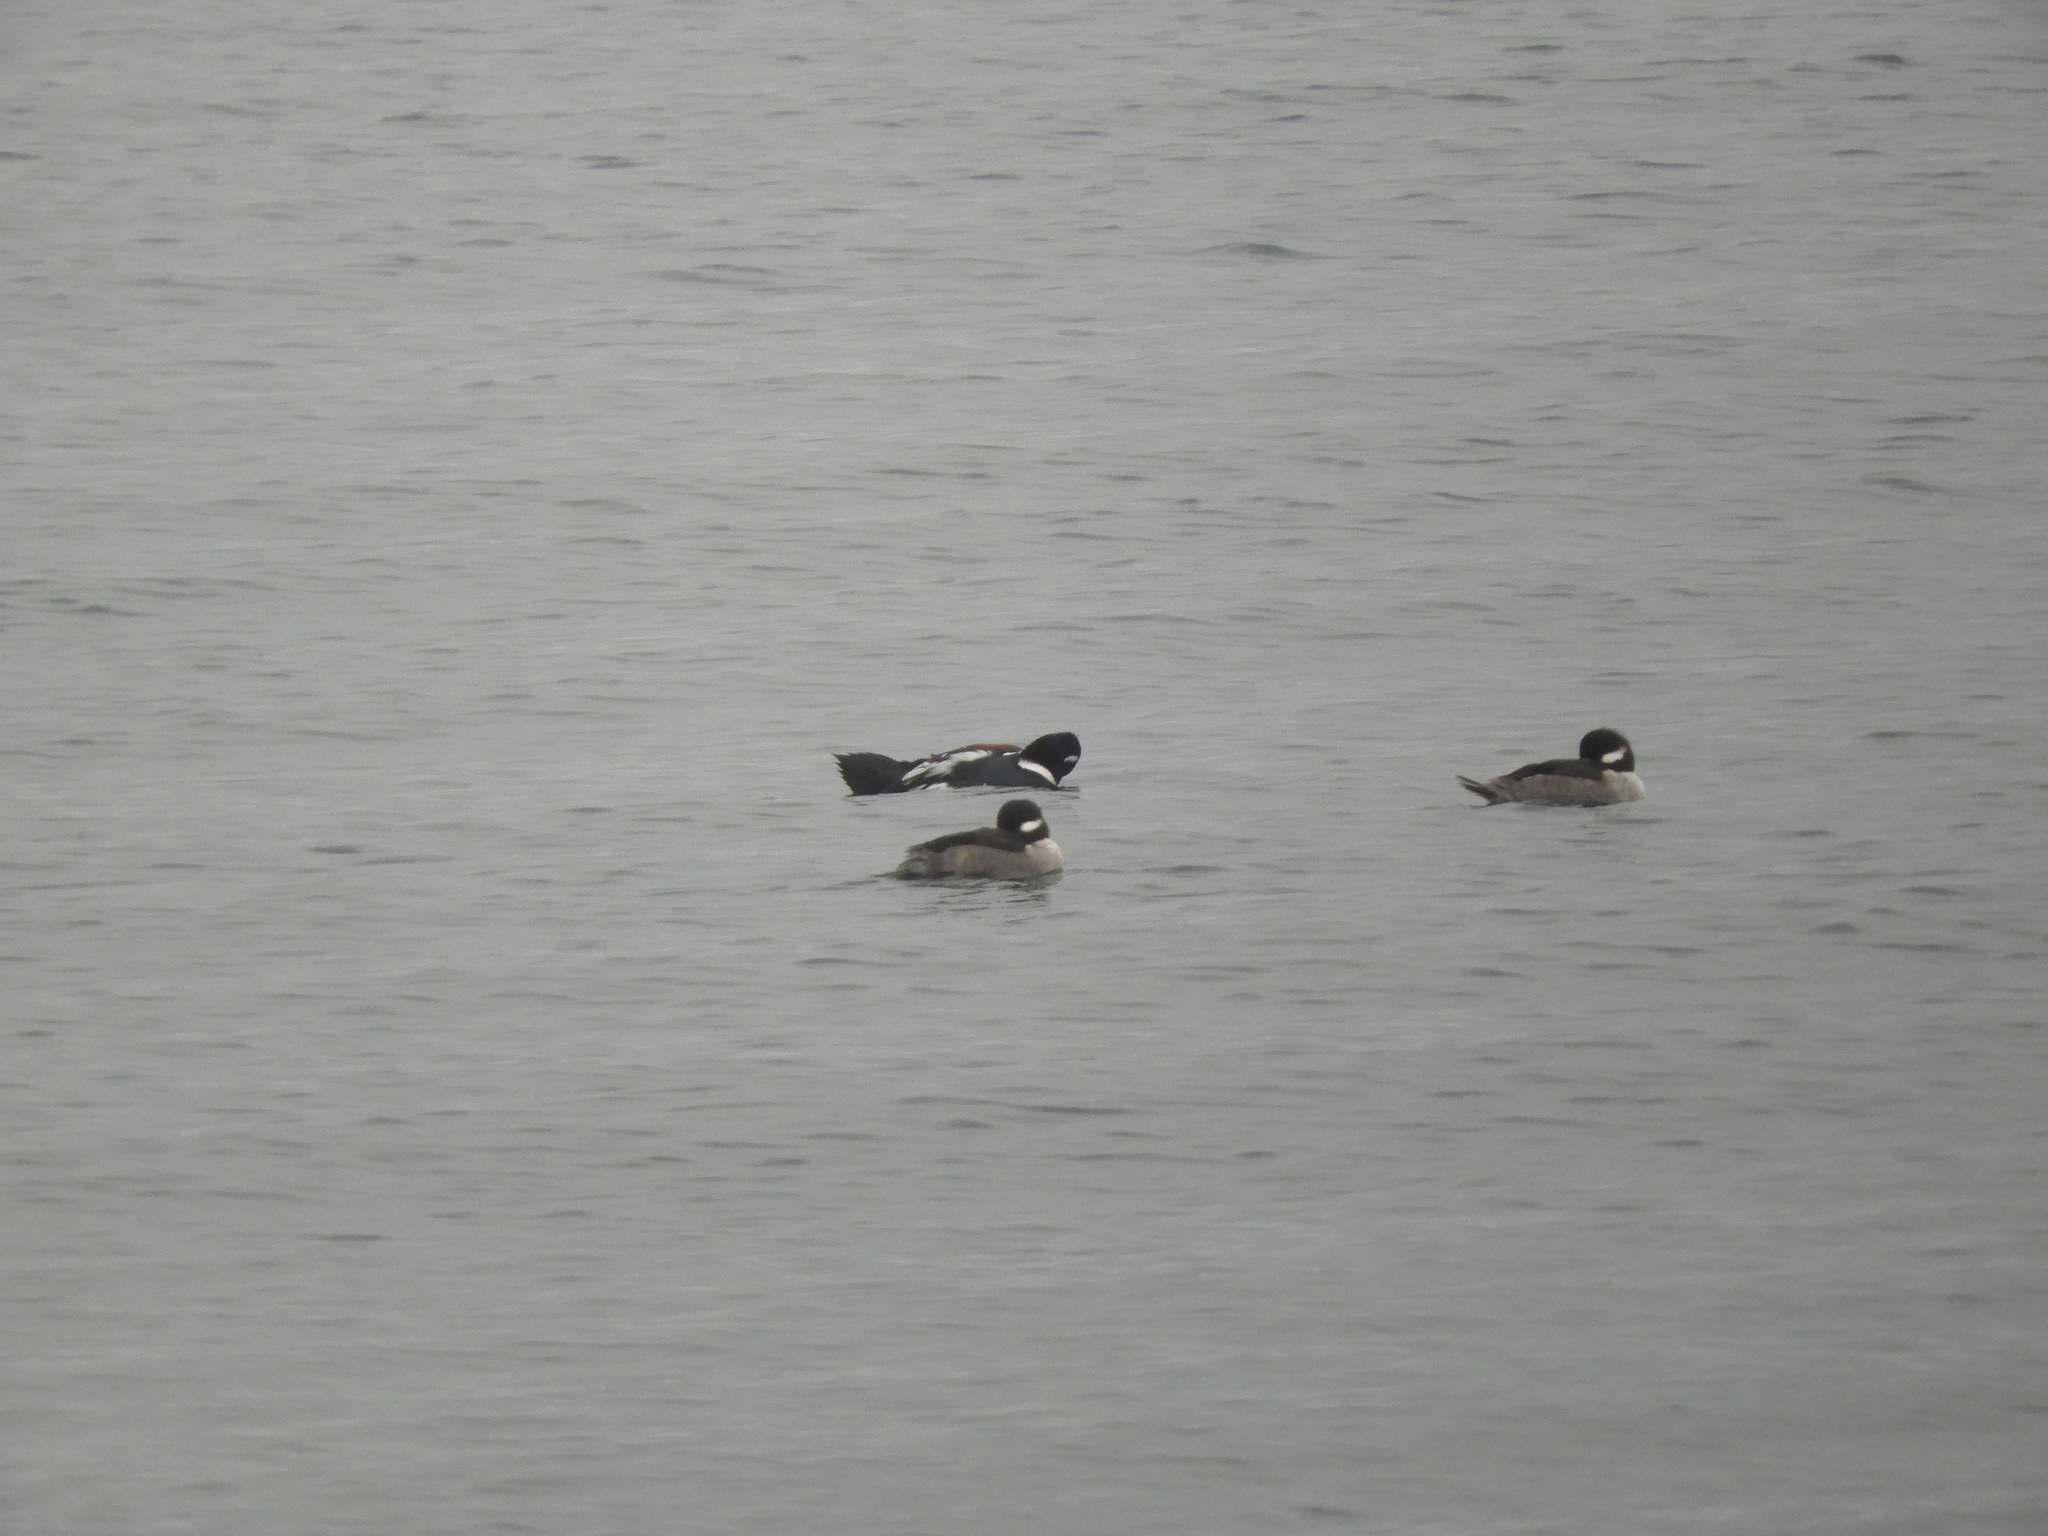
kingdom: Animalia
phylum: Chordata
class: Aves
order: Anseriformes
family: Anatidae
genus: Histrionicus
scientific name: Histrionicus histrionicus
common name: Harlequin duck
